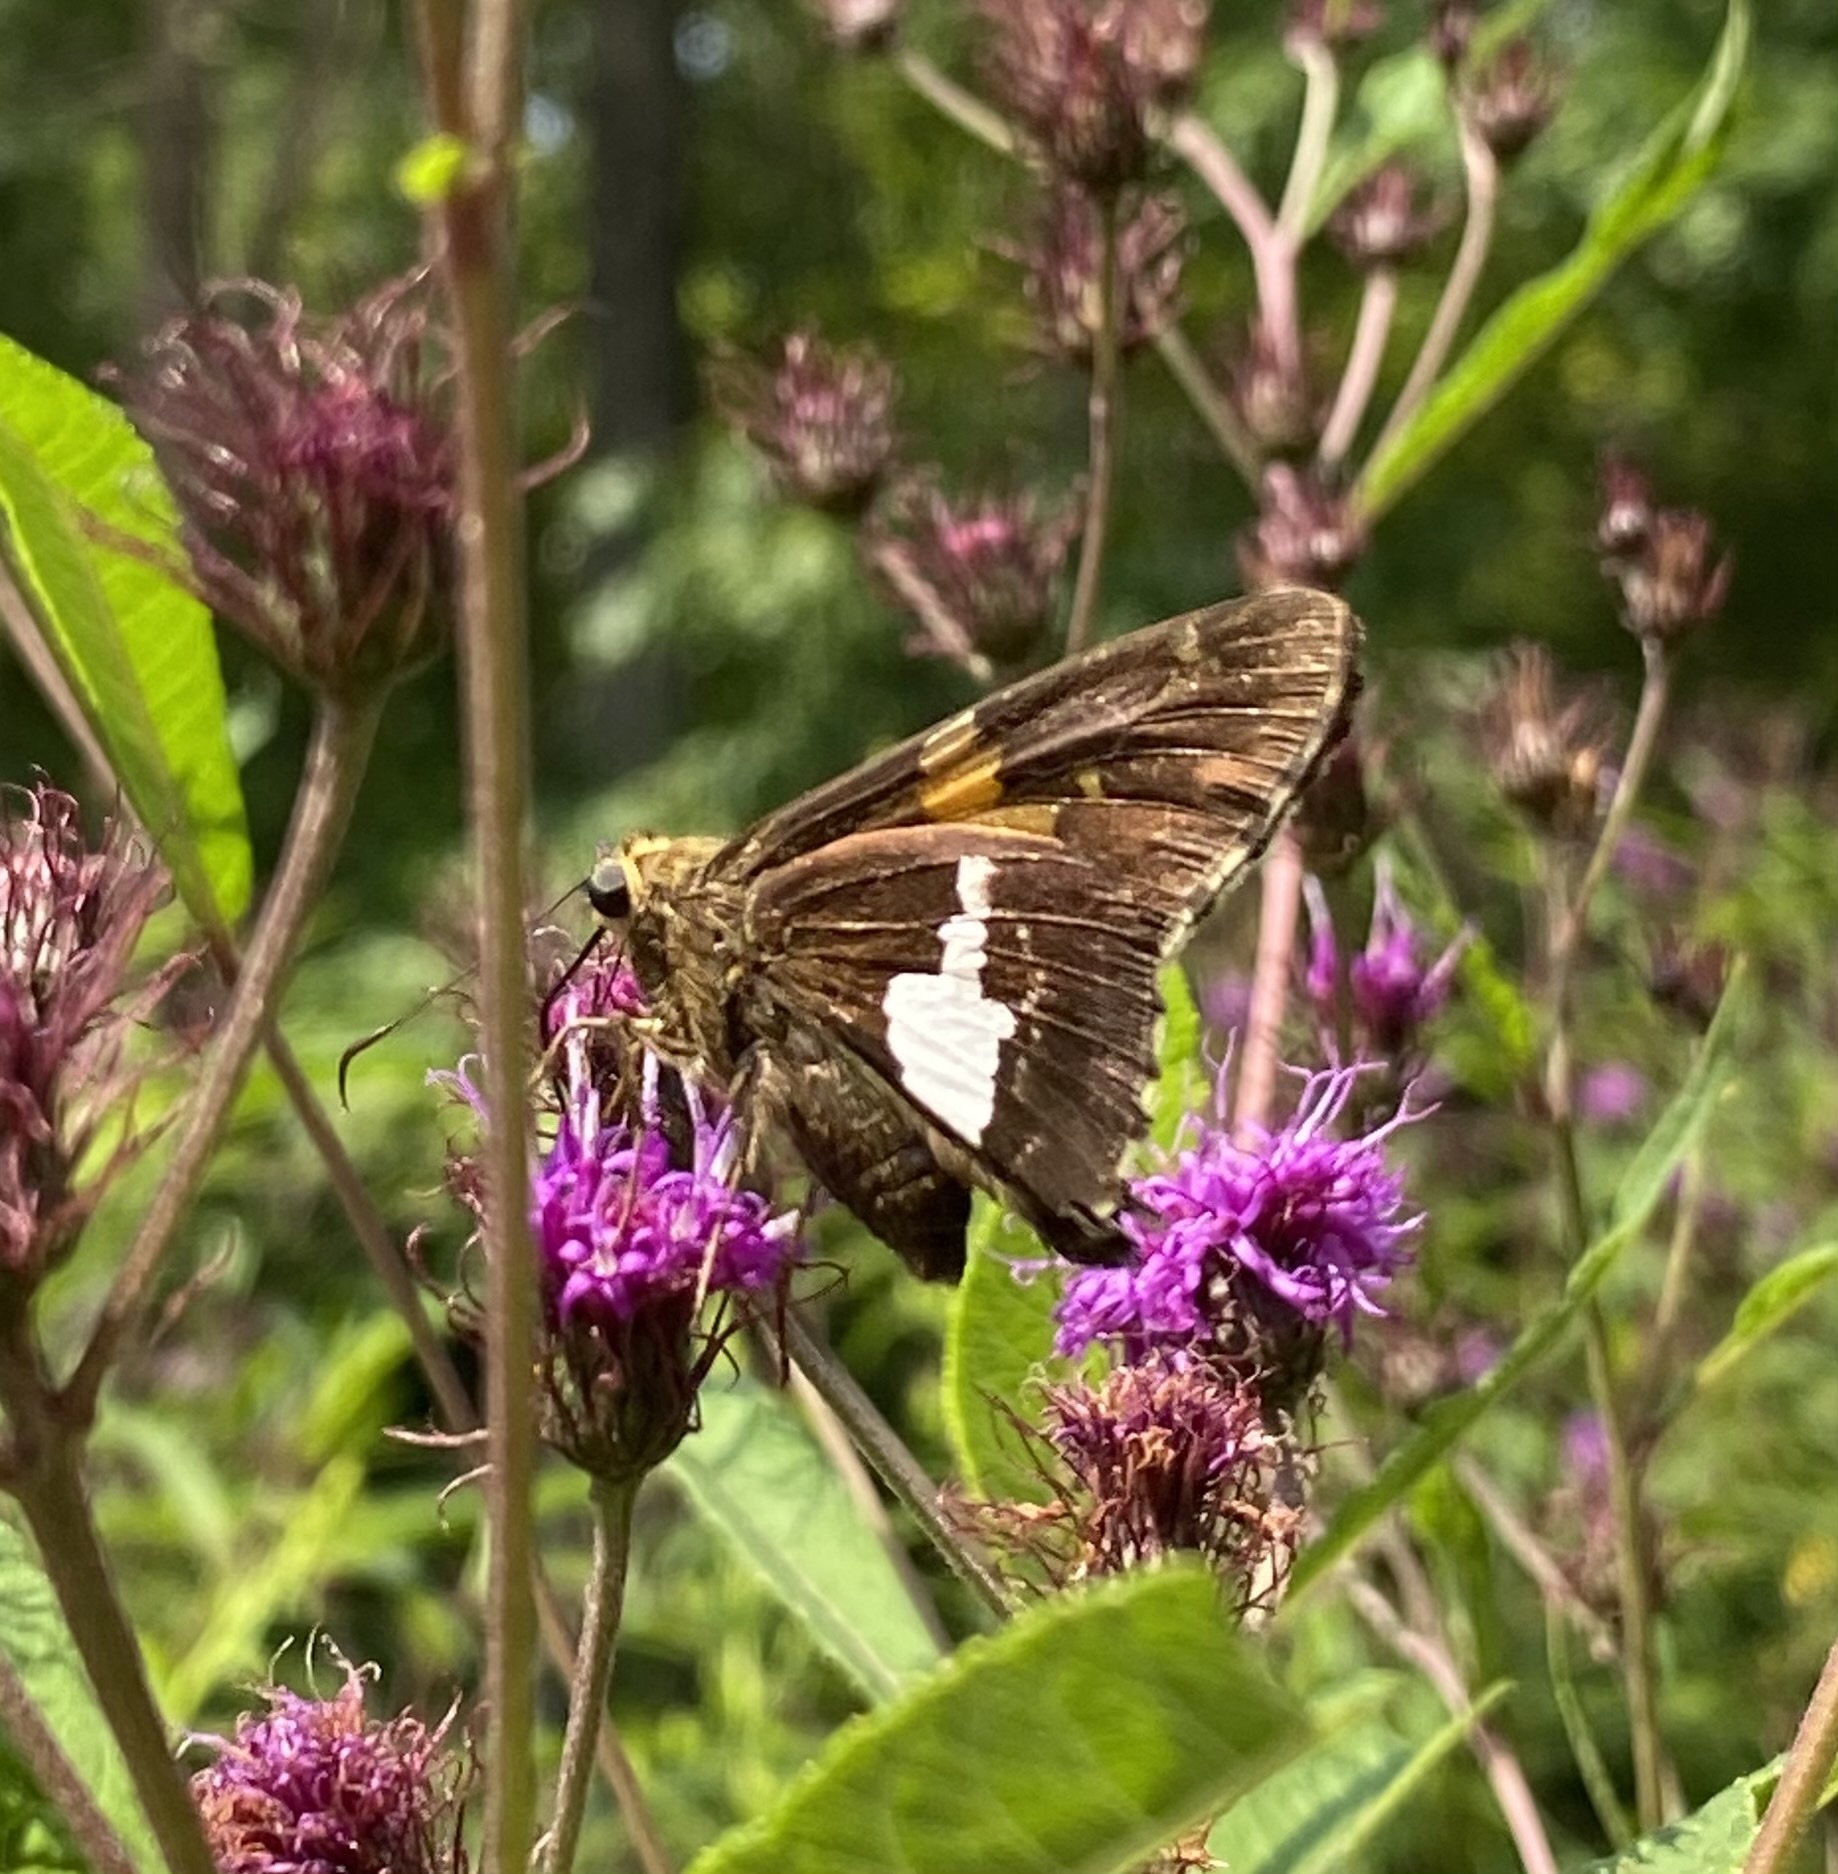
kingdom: Animalia
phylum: Arthropoda
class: Insecta
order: Lepidoptera
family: Hesperiidae
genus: Epargyreus
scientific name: Epargyreus clarus
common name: Silver-spotted skipper
